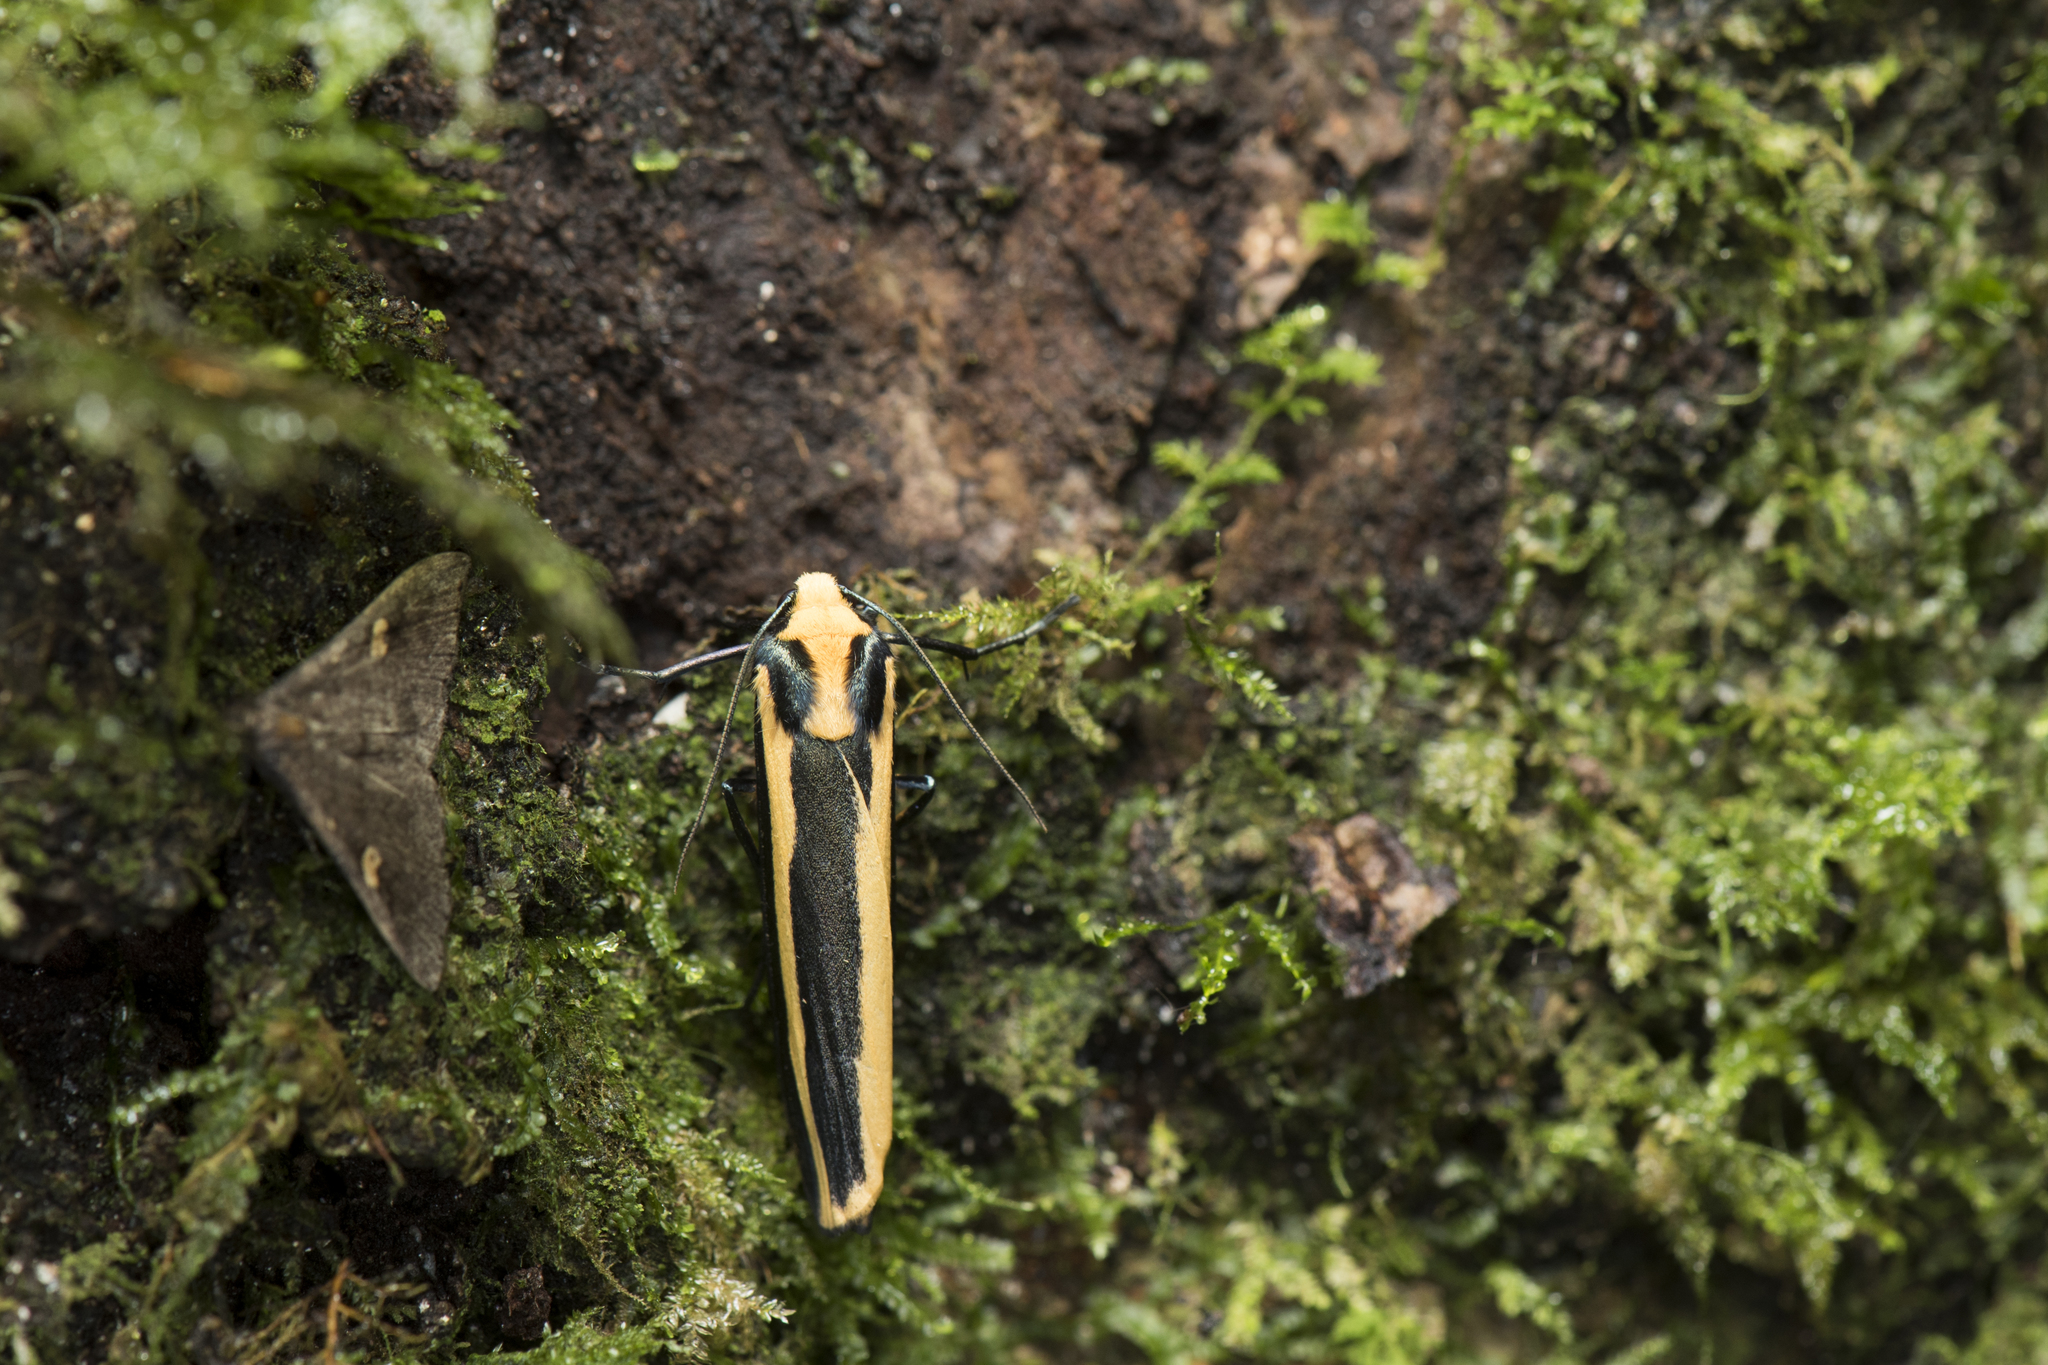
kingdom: Animalia
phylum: Arthropoda
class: Insecta
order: Lepidoptera
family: Erebidae
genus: Chrysorabdia
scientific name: Chrysorabdia vilemani
